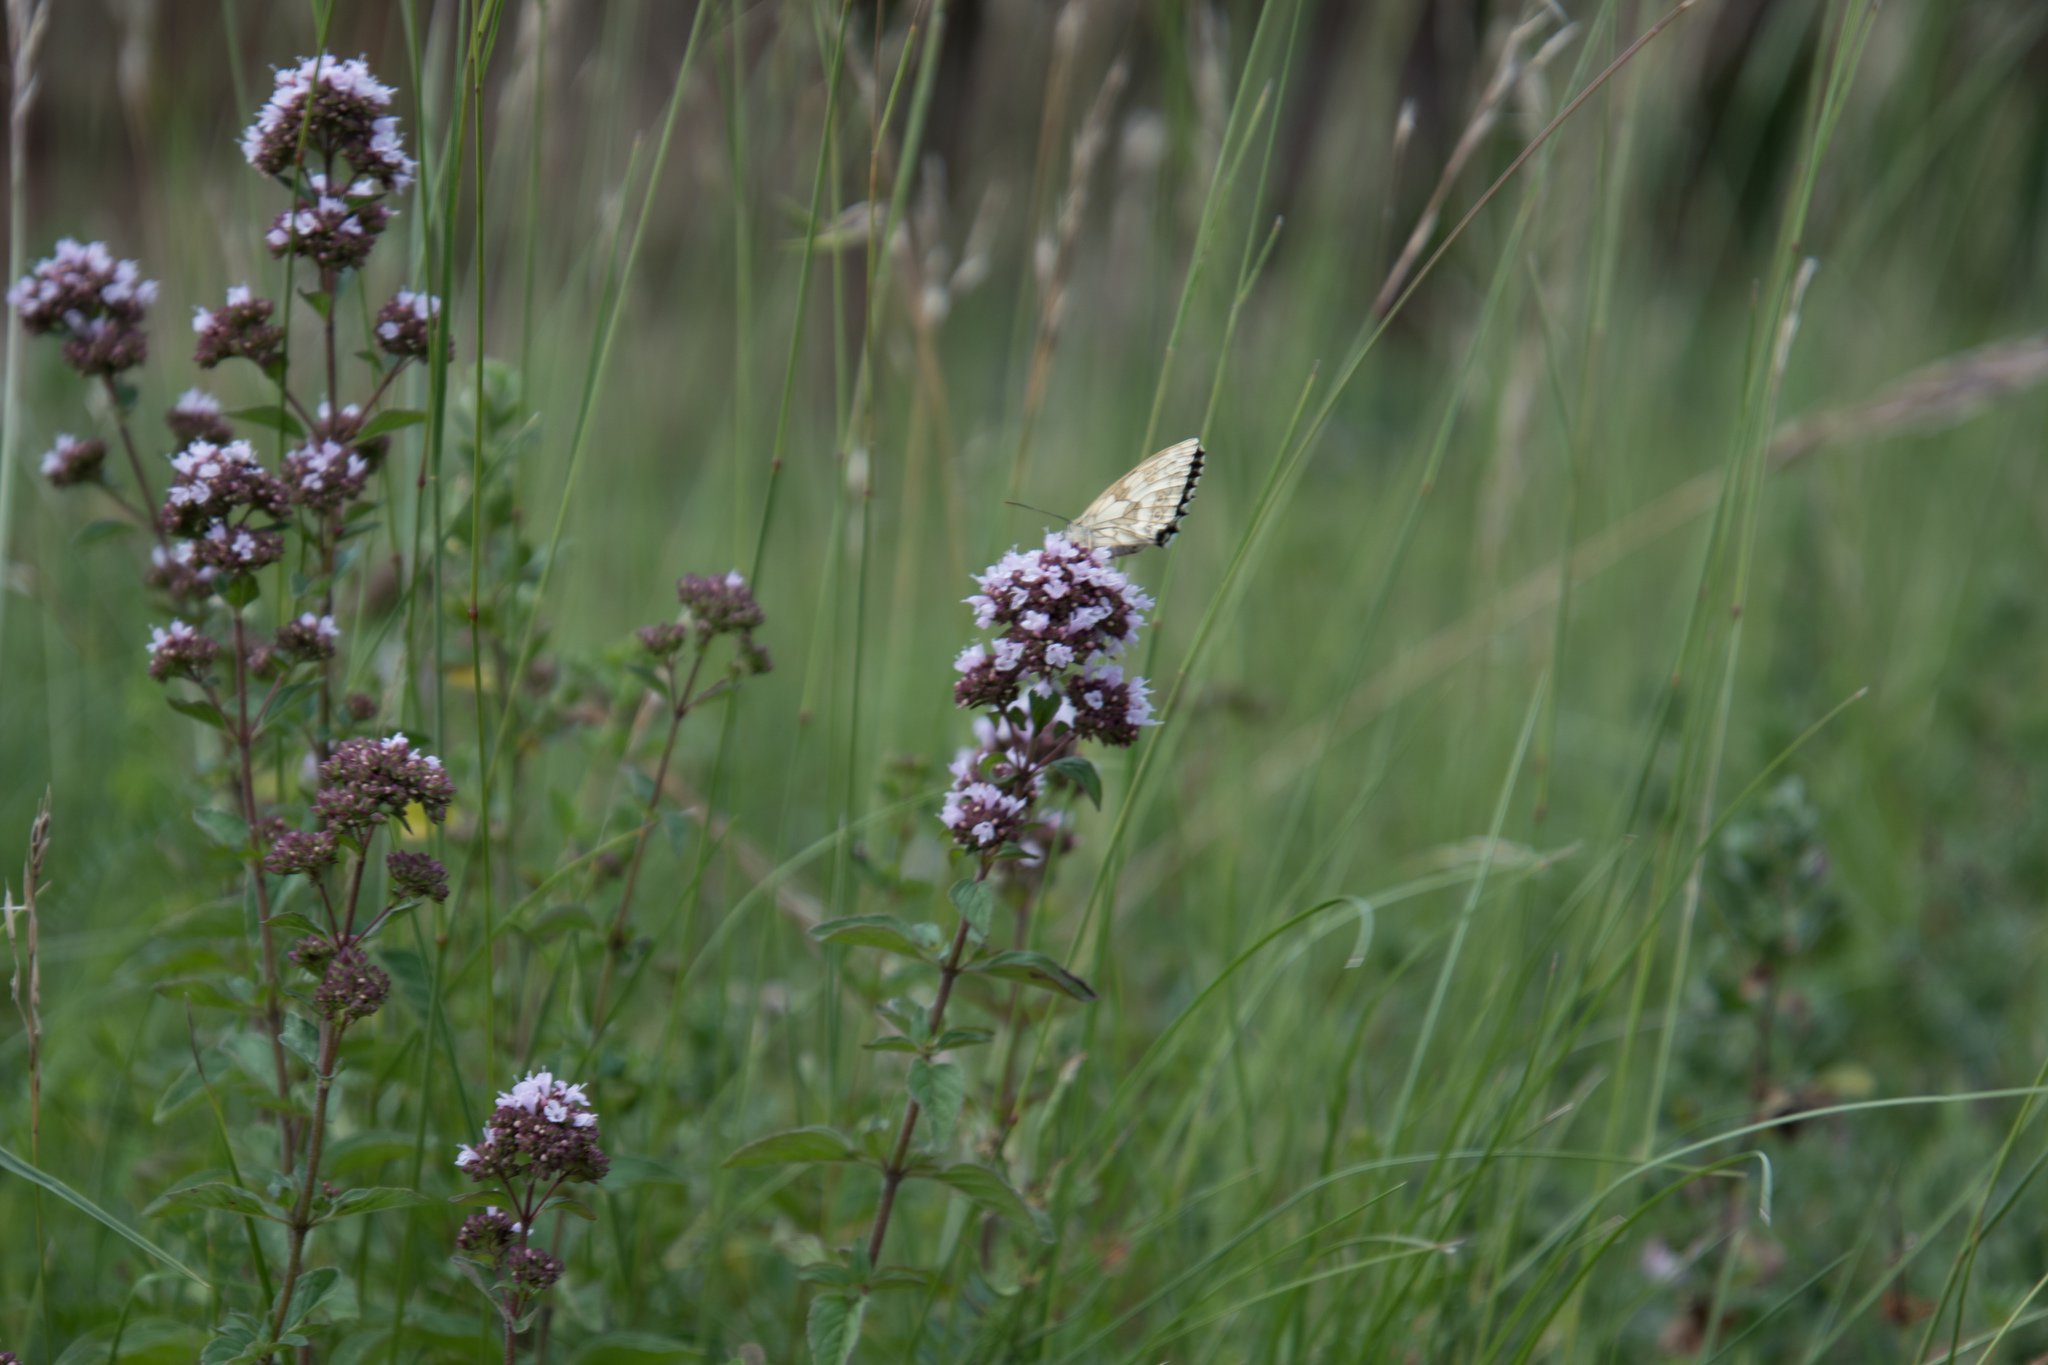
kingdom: Animalia
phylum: Arthropoda
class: Insecta
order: Lepidoptera
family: Nymphalidae
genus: Melanargia
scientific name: Melanargia galathea
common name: Marbled white
